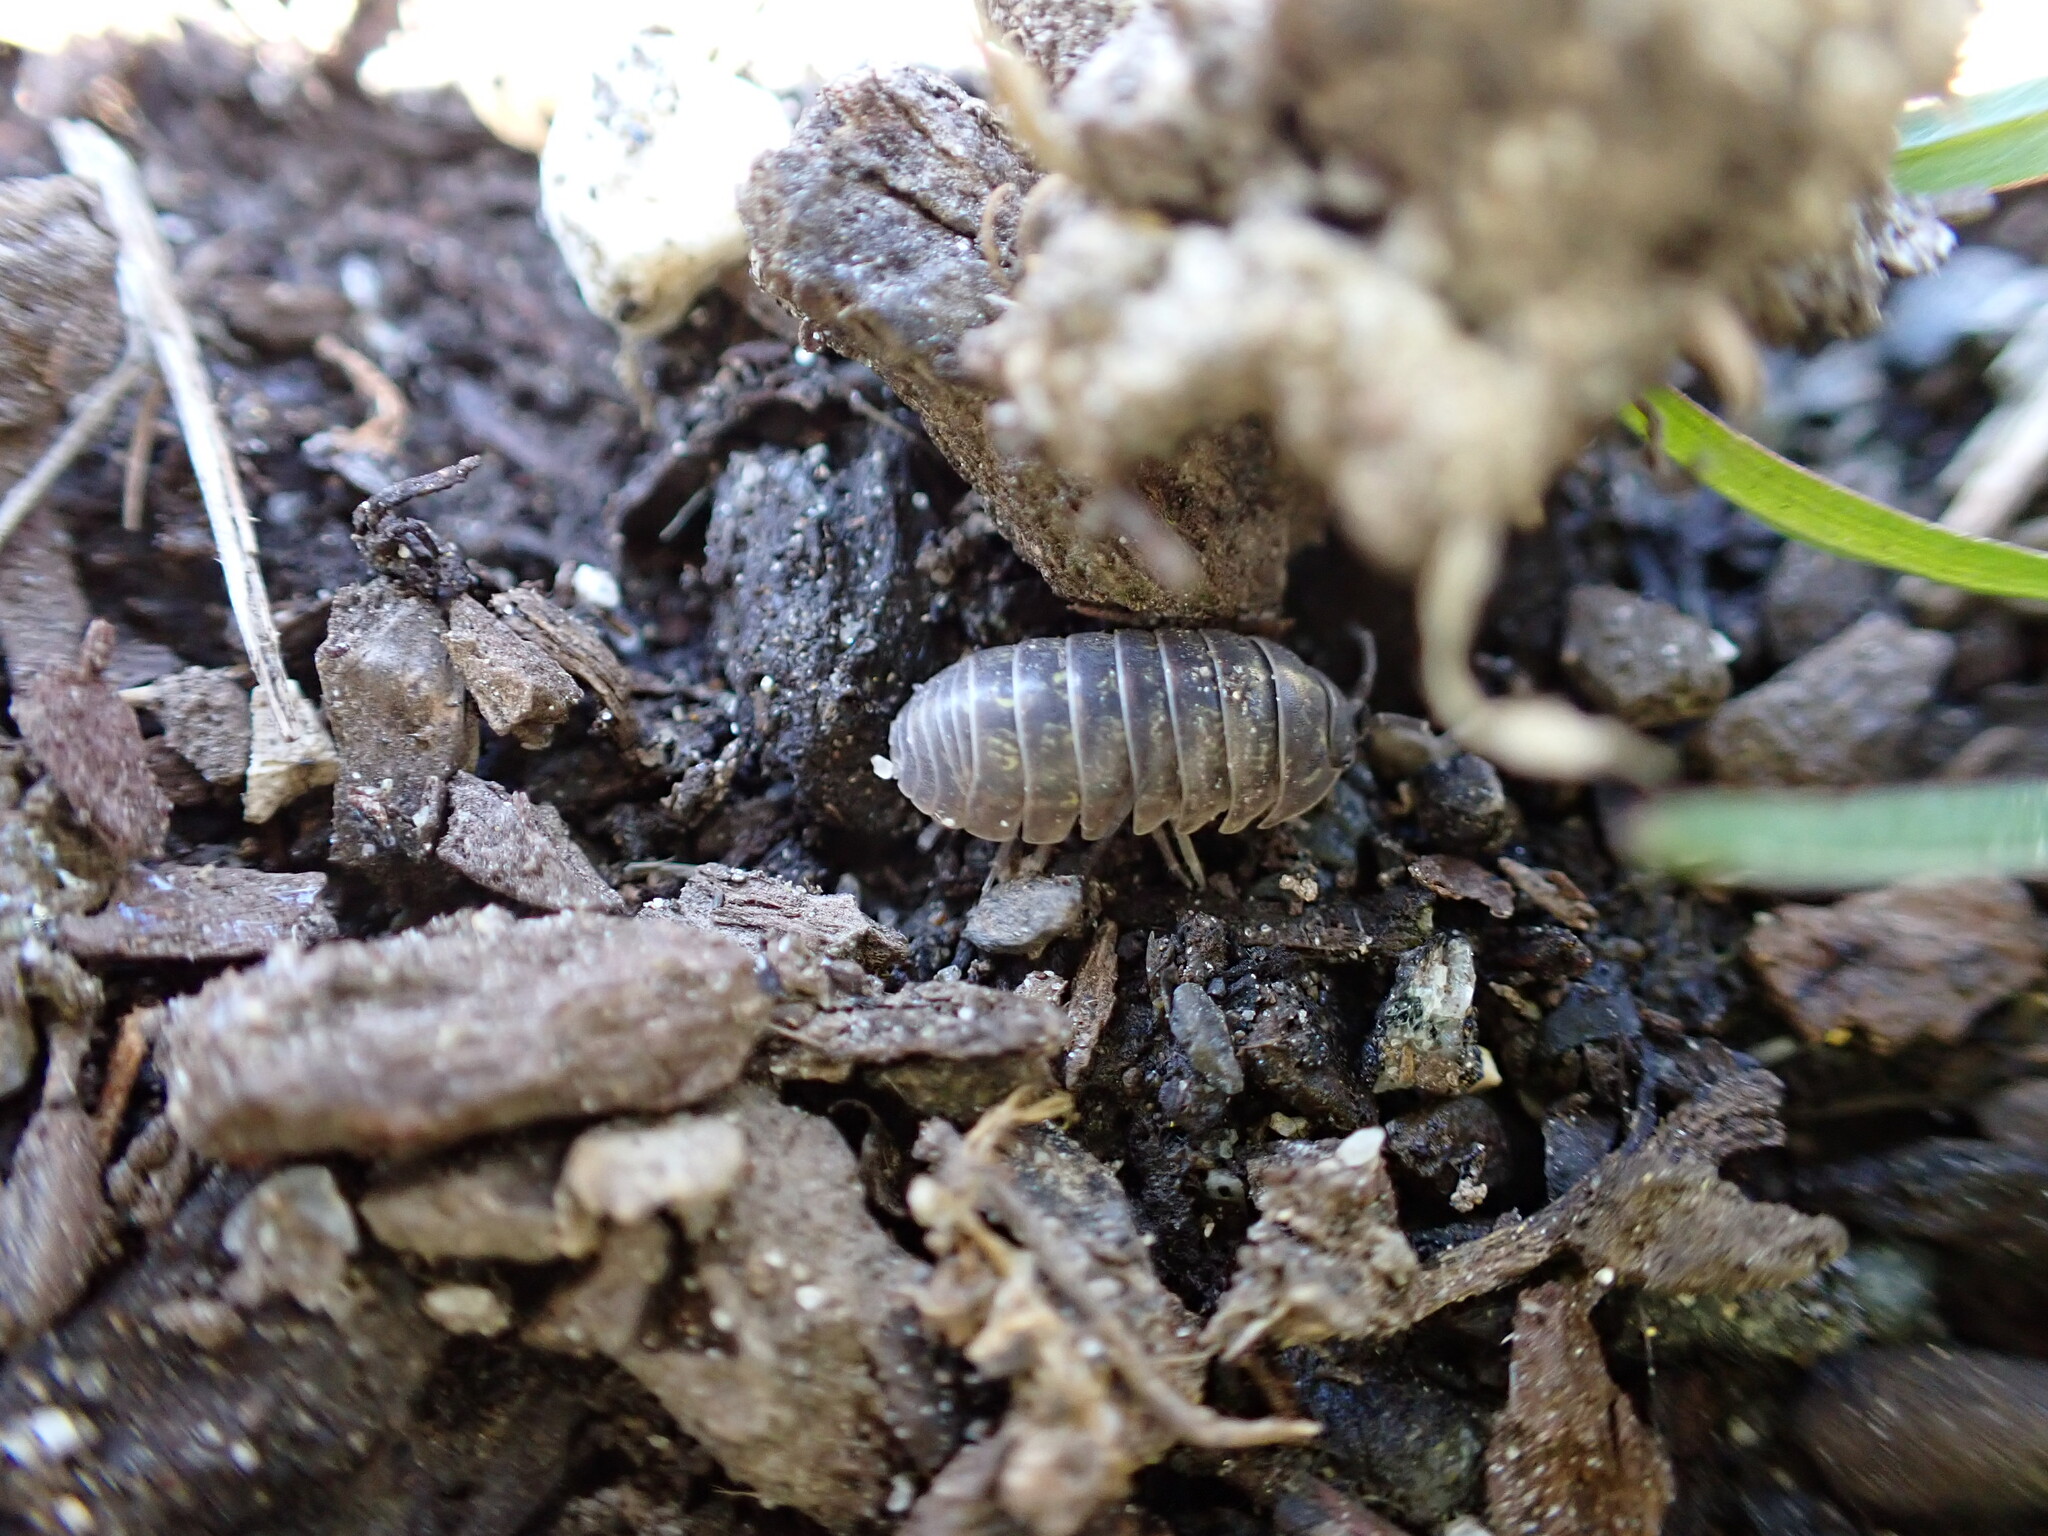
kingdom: Animalia
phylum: Arthropoda
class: Malacostraca
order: Isopoda
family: Armadillidiidae
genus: Armadillidium
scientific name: Armadillidium vulgare
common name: Common pill woodlouse
